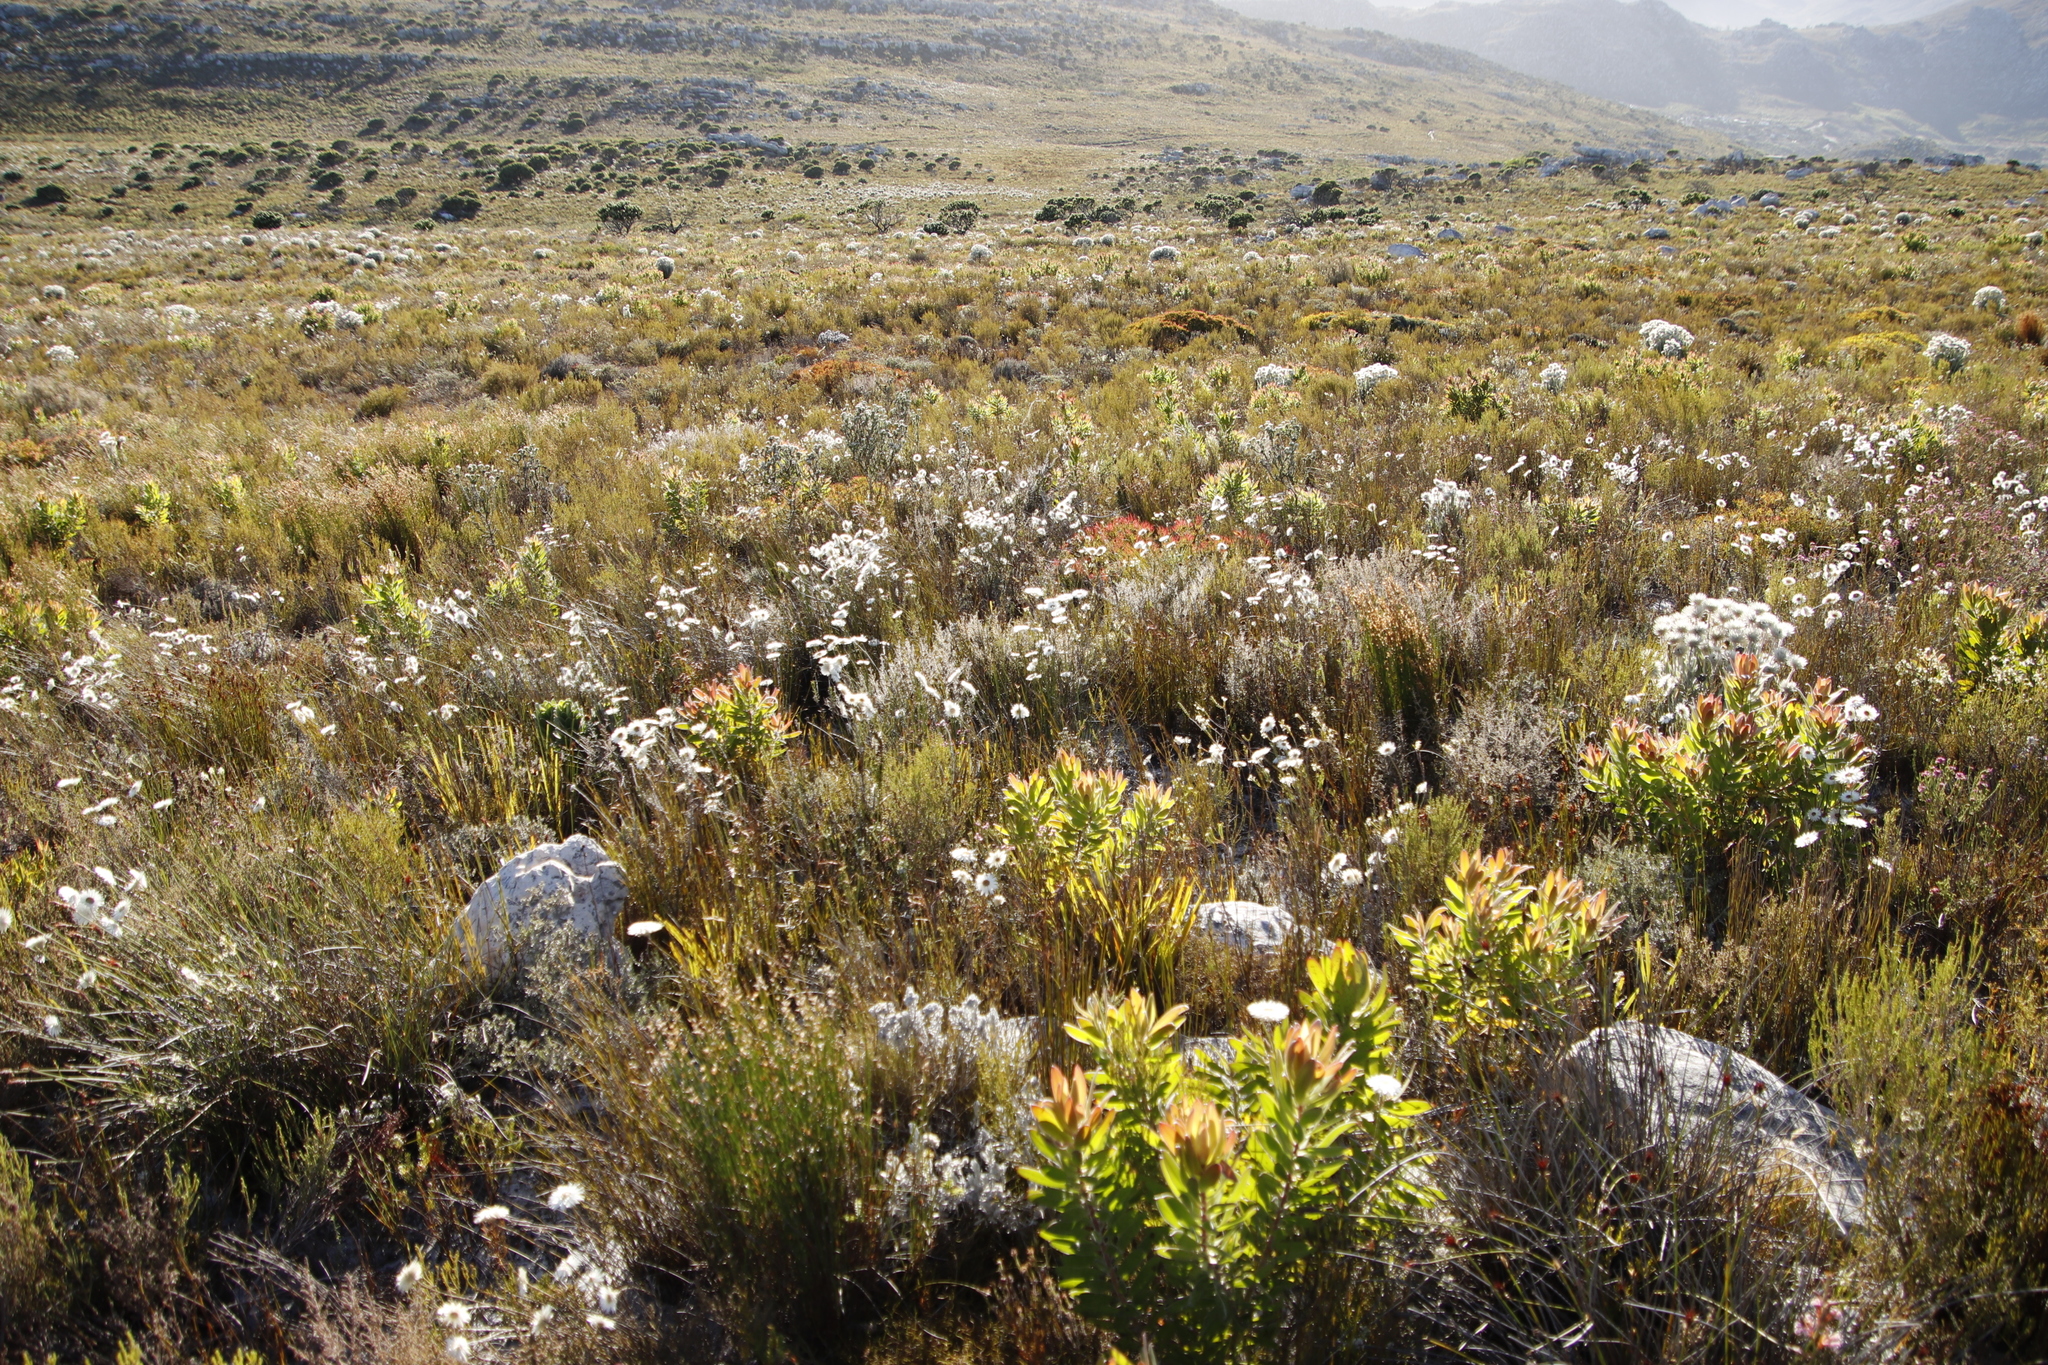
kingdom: Plantae
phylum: Tracheophyta
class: Magnoliopsida
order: Asterales
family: Asteraceae
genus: Edmondia
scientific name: Edmondia sesamoides
